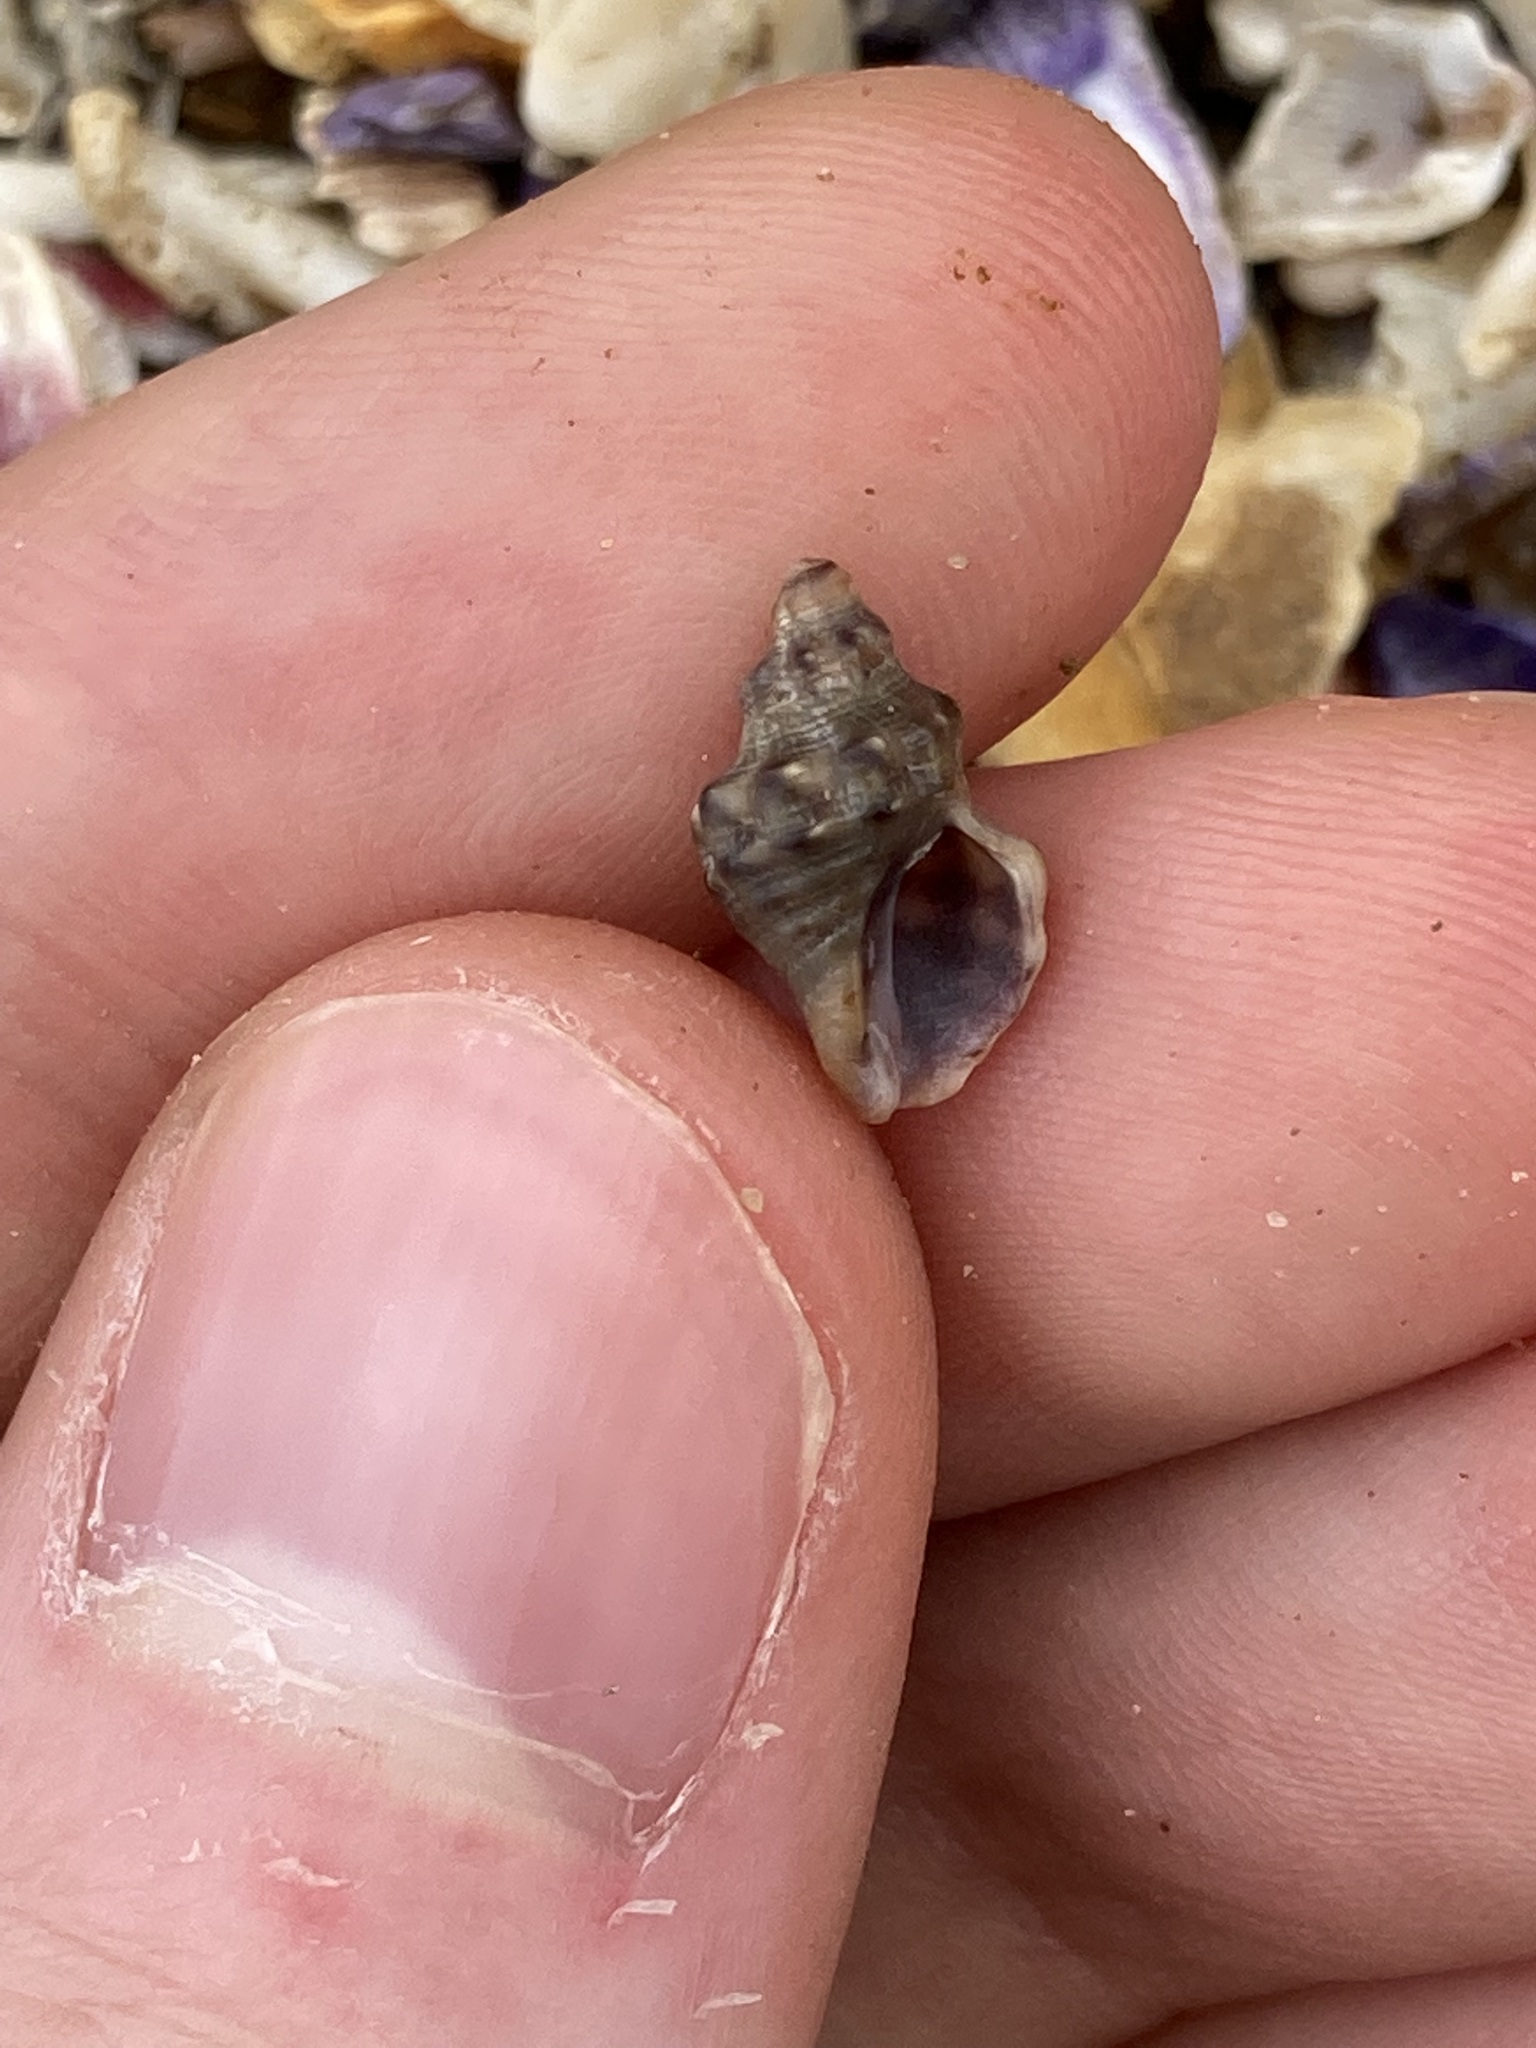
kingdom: Animalia
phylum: Mollusca
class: Gastropoda
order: Neogastropoda
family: Muricidae
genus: Phycothais
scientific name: Phycothais reticulata
